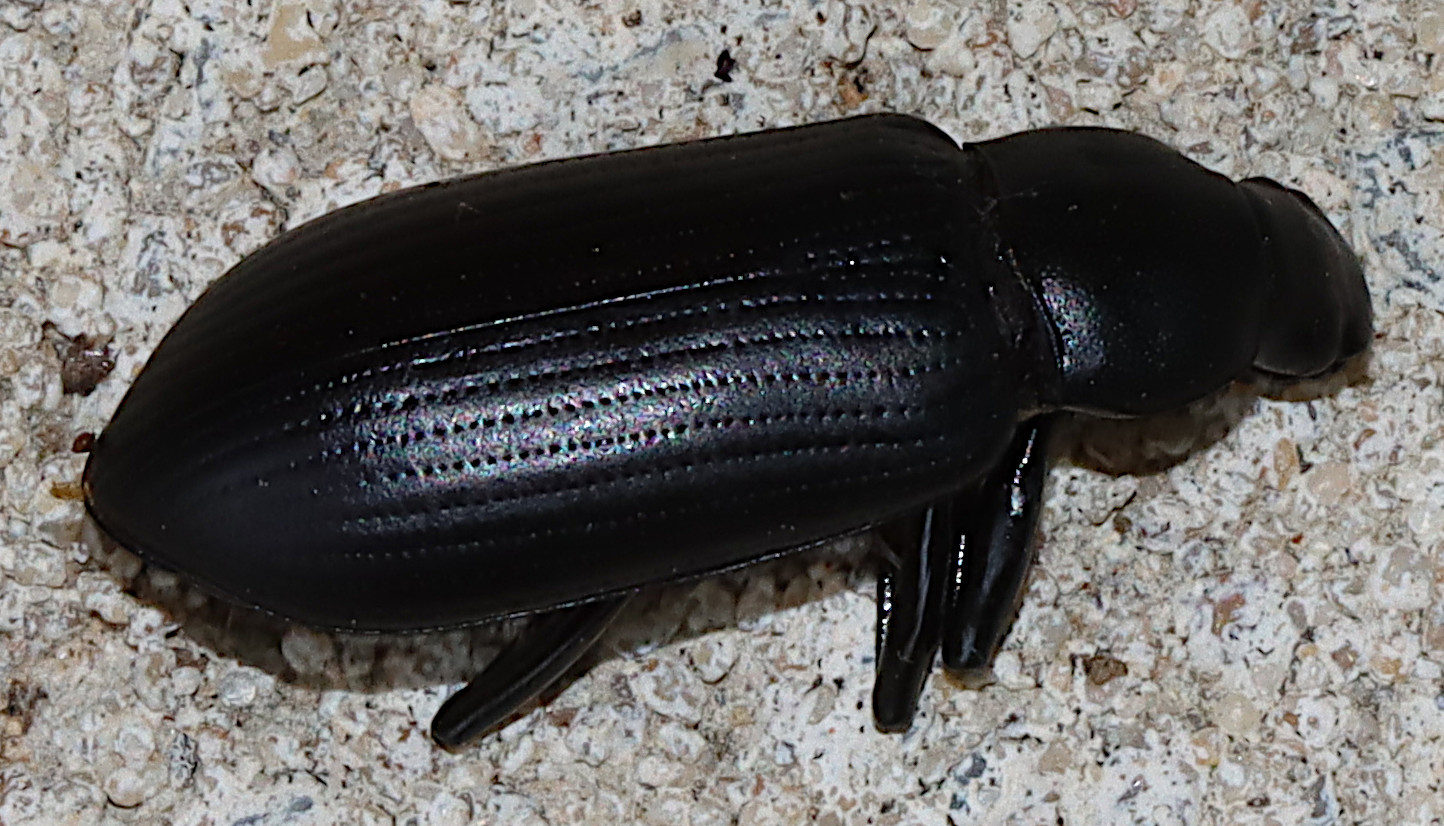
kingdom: Animalia
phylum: Arthropoda
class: Insecta
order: Coleoptera
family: Tenebrionidae
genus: Merinus
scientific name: Merinus laevis
